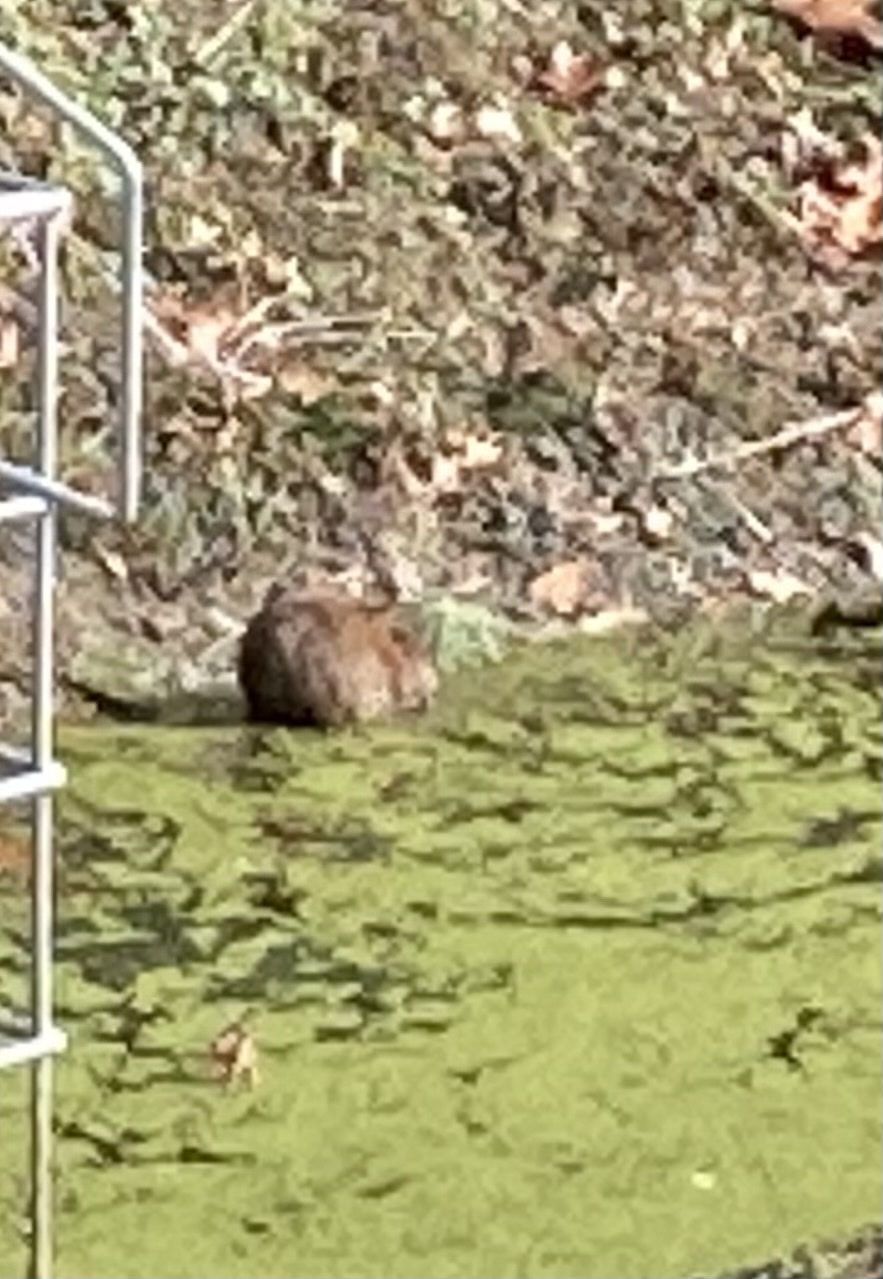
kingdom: Animalia
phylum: Chordata
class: Mammalia
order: Rodentia
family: Cricetidae
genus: Ondatra
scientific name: Ondatra zibethicus
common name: Muskrat
